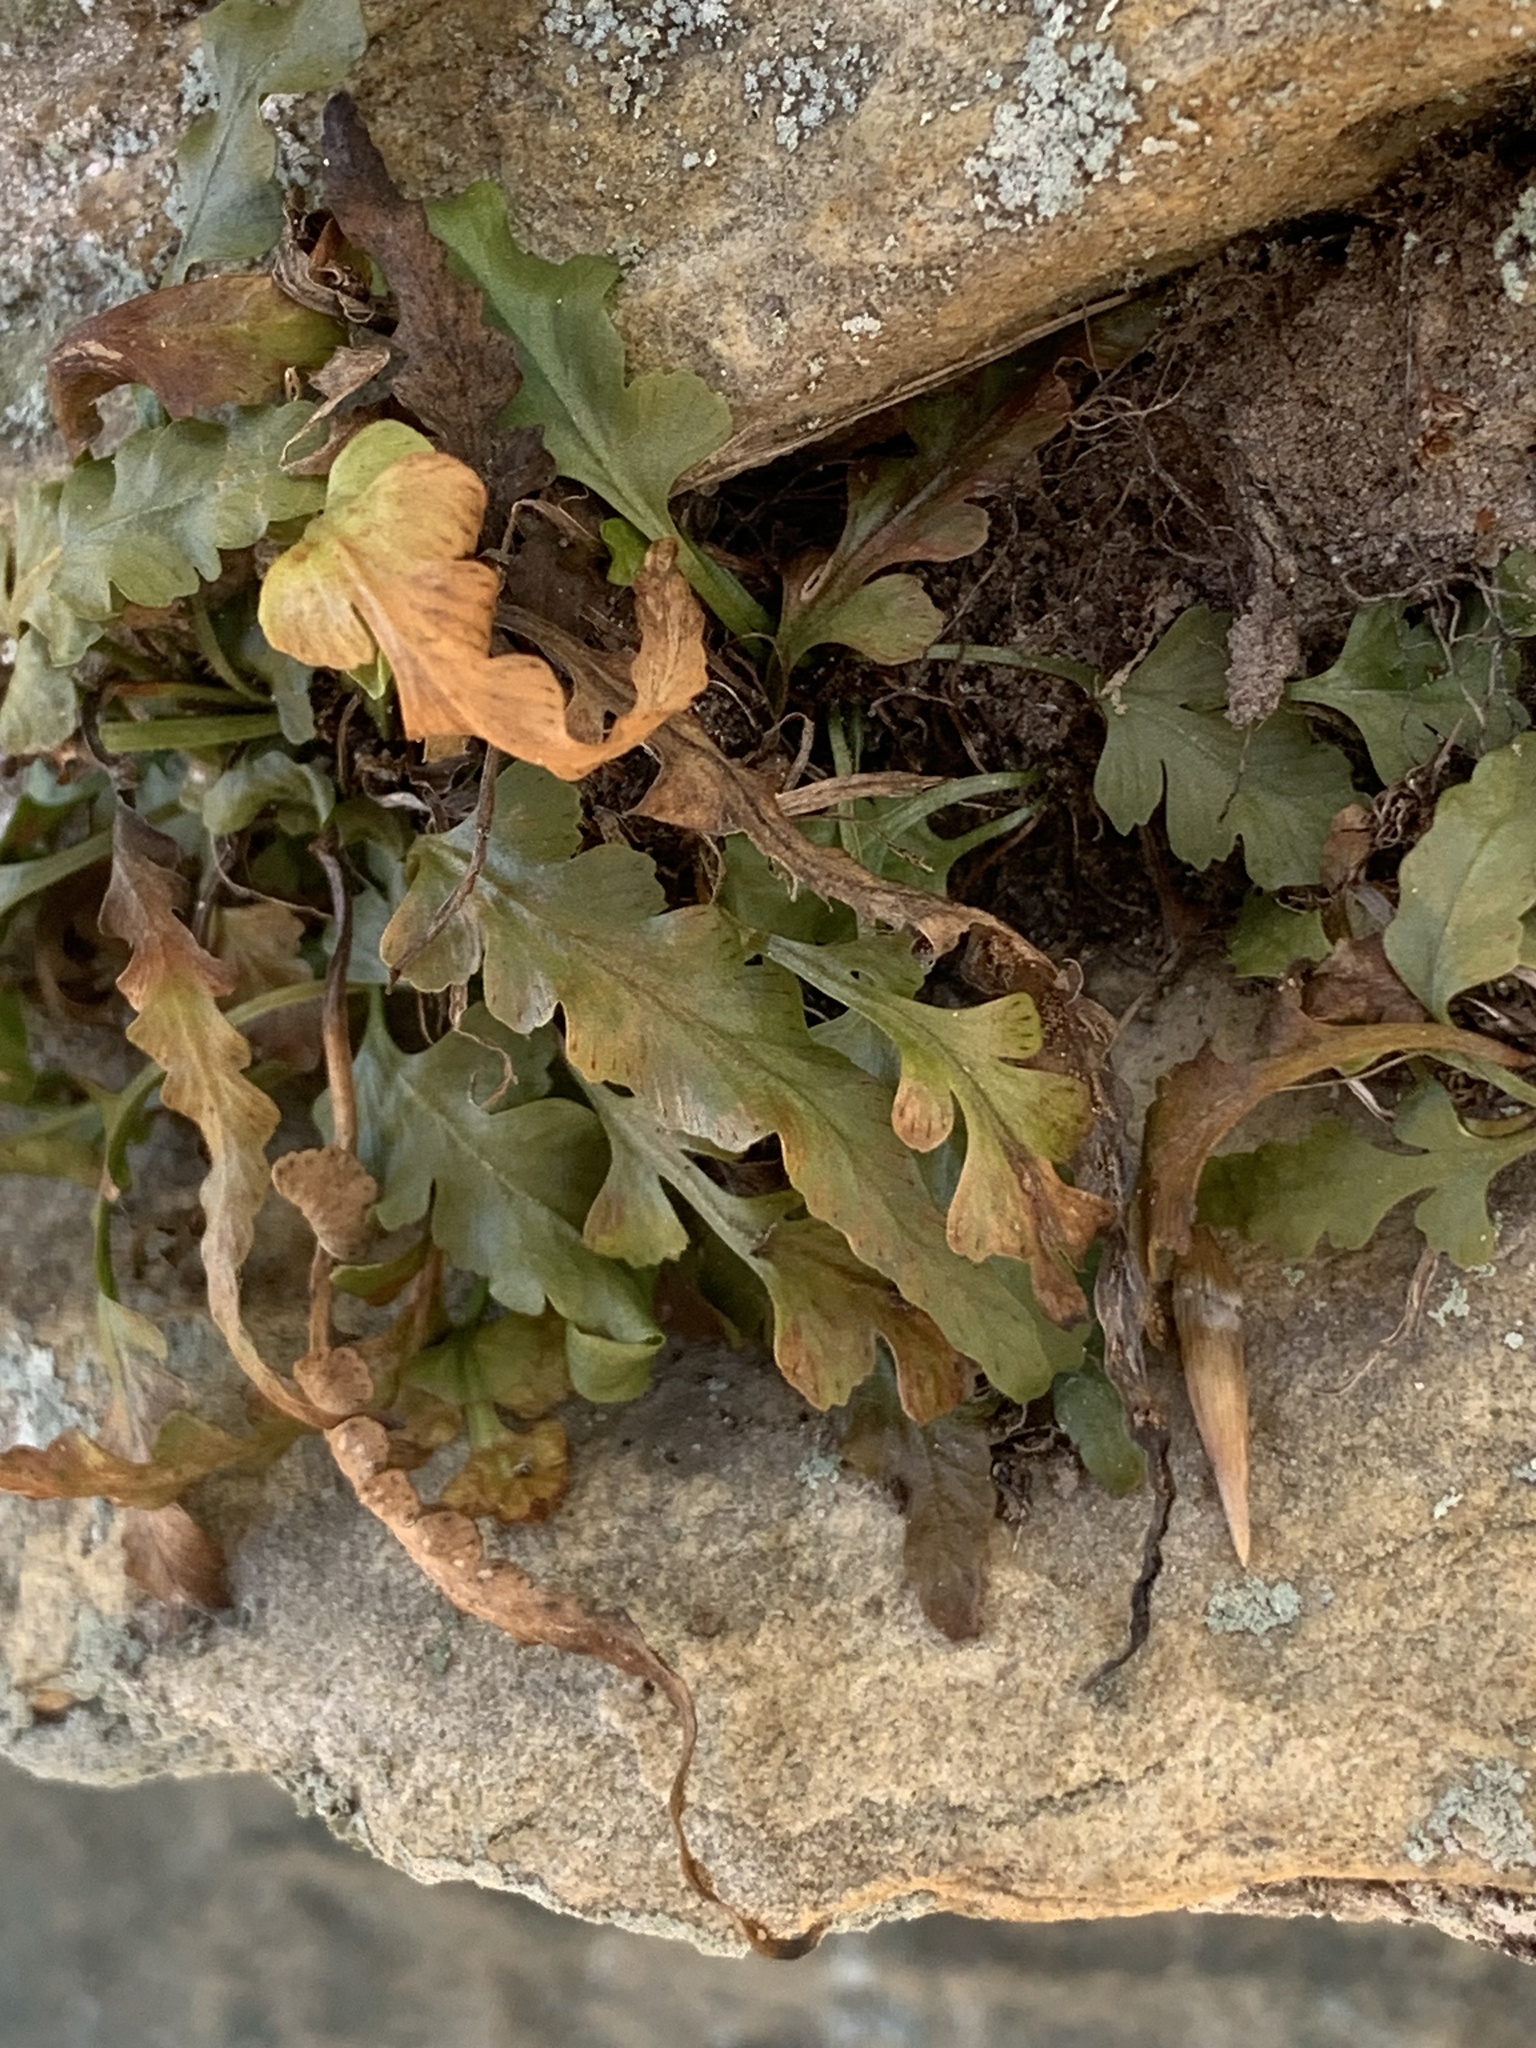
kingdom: Plantae
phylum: Tracheophyta
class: Polypodiopsida
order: Polypodiales
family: Aspleniaceae
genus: Asplenium
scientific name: Asplenium pinnatifidum
